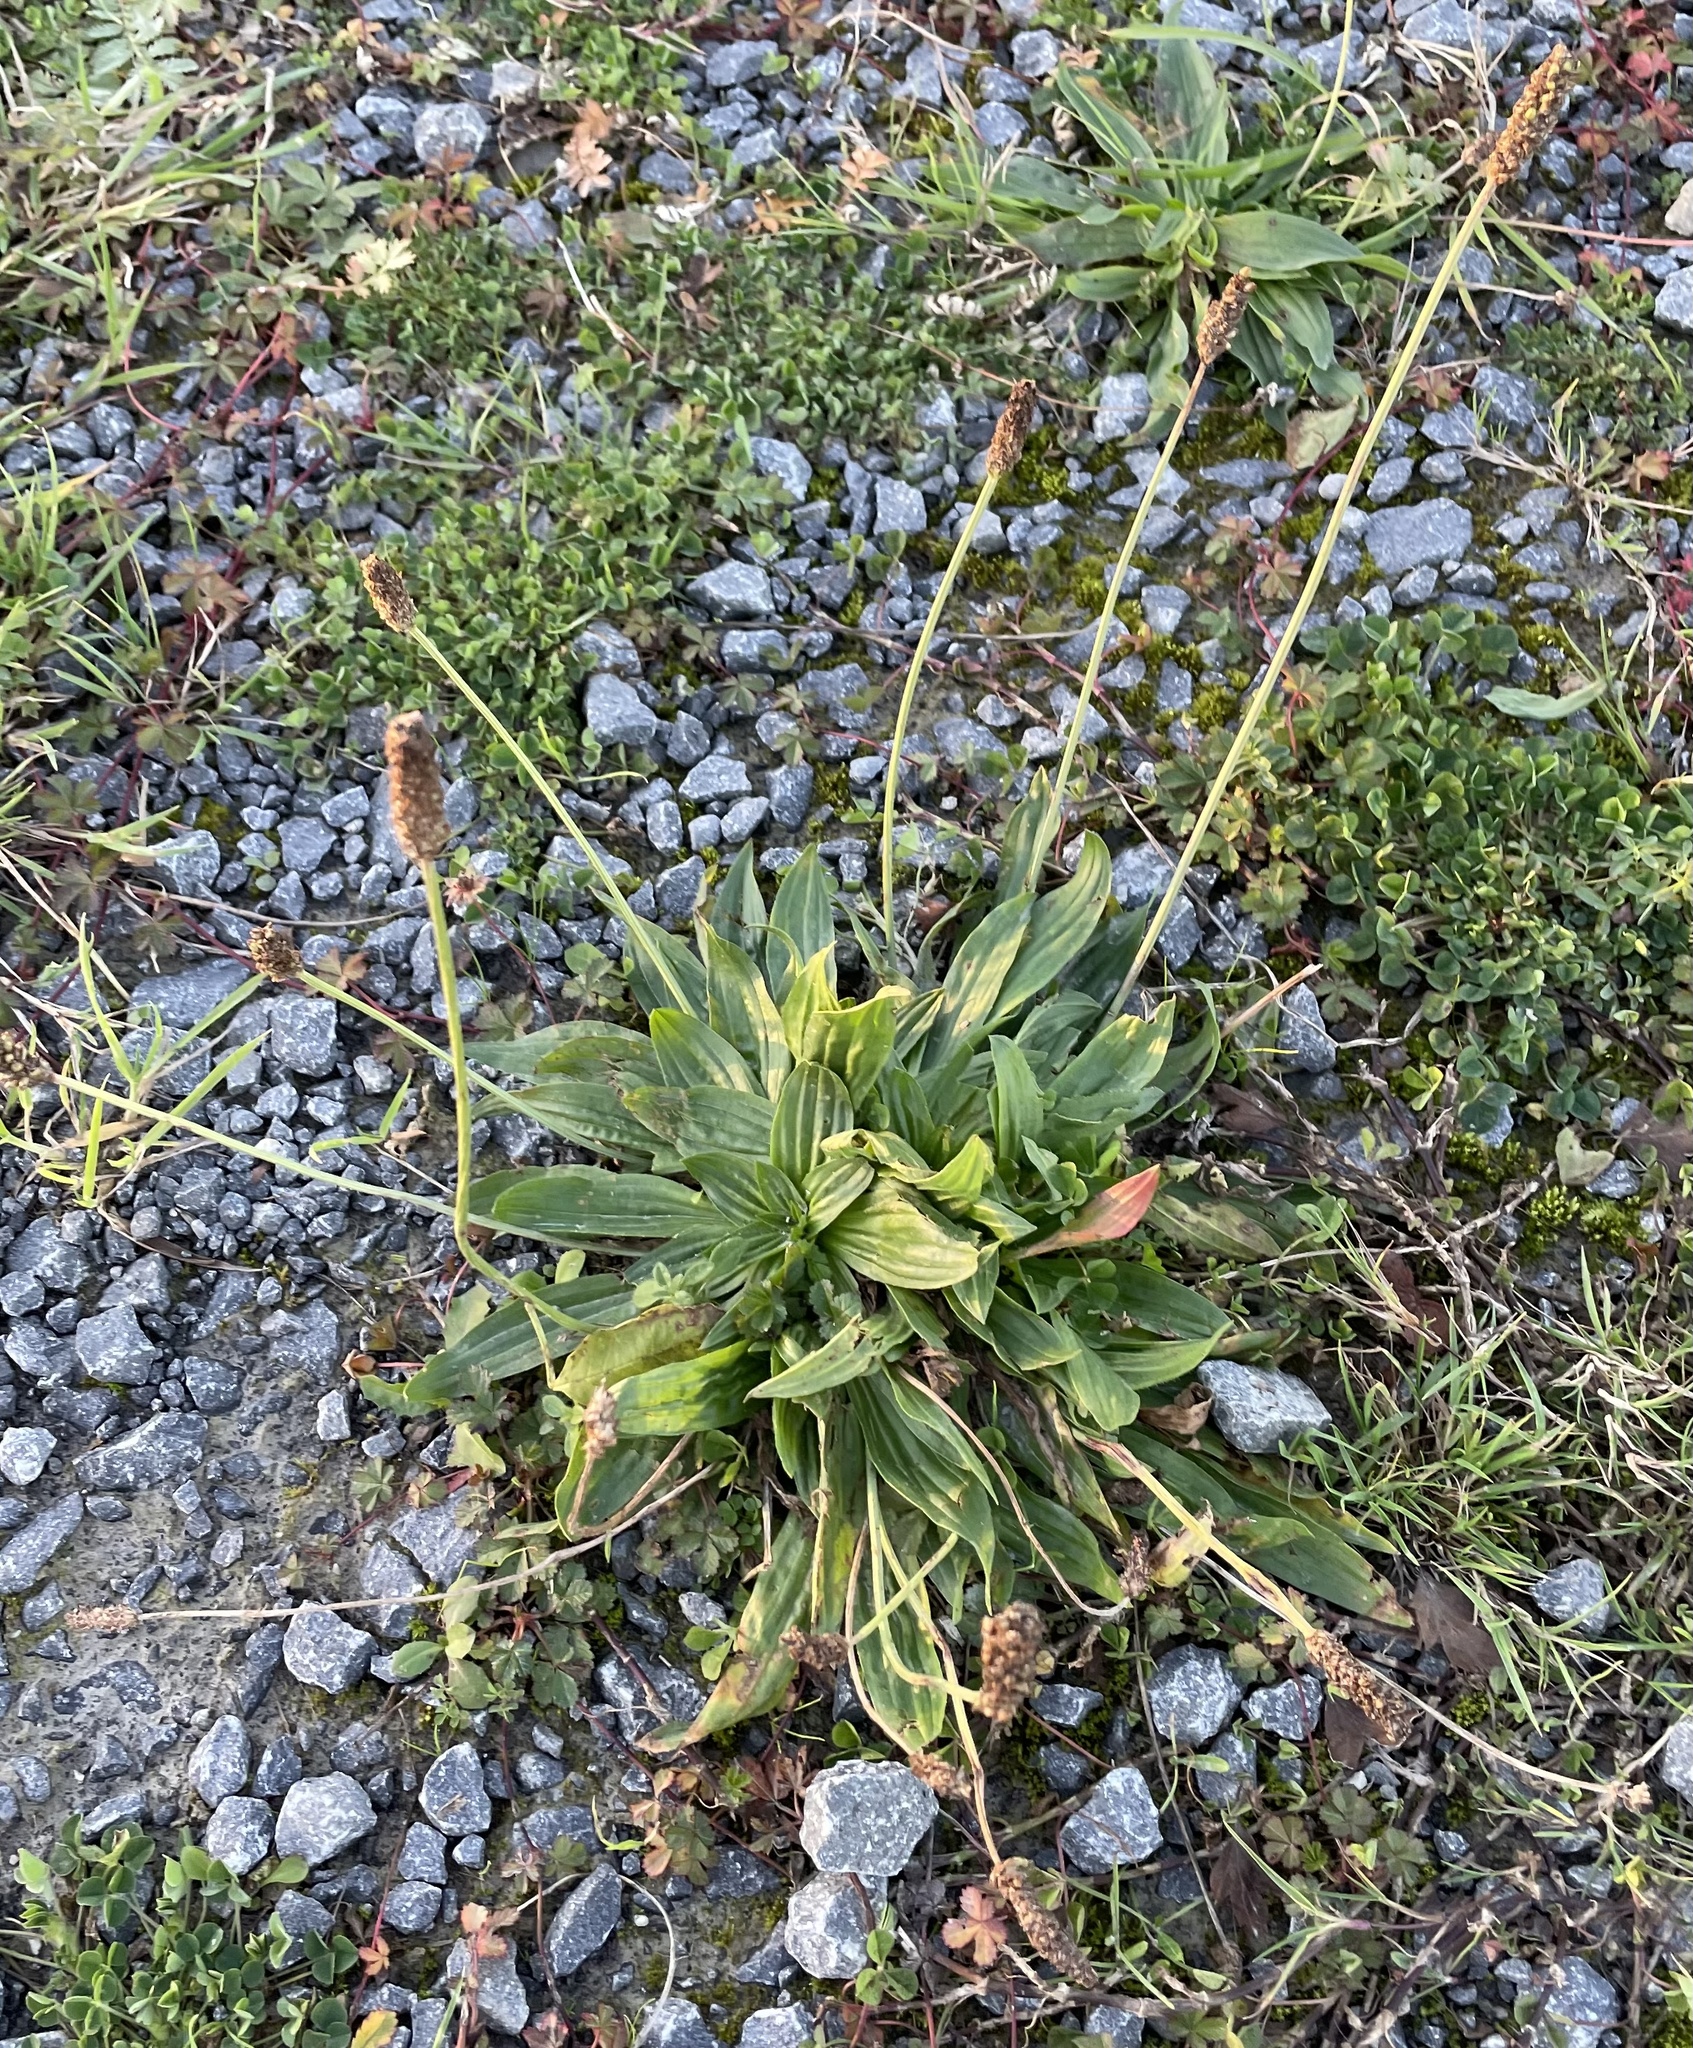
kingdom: Plantae
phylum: Tracheophyta
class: Magnoliopsida
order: Lamiales
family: Plantaginaceae
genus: Plantago
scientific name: Plantago lanceolata
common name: Ribwort plantain
